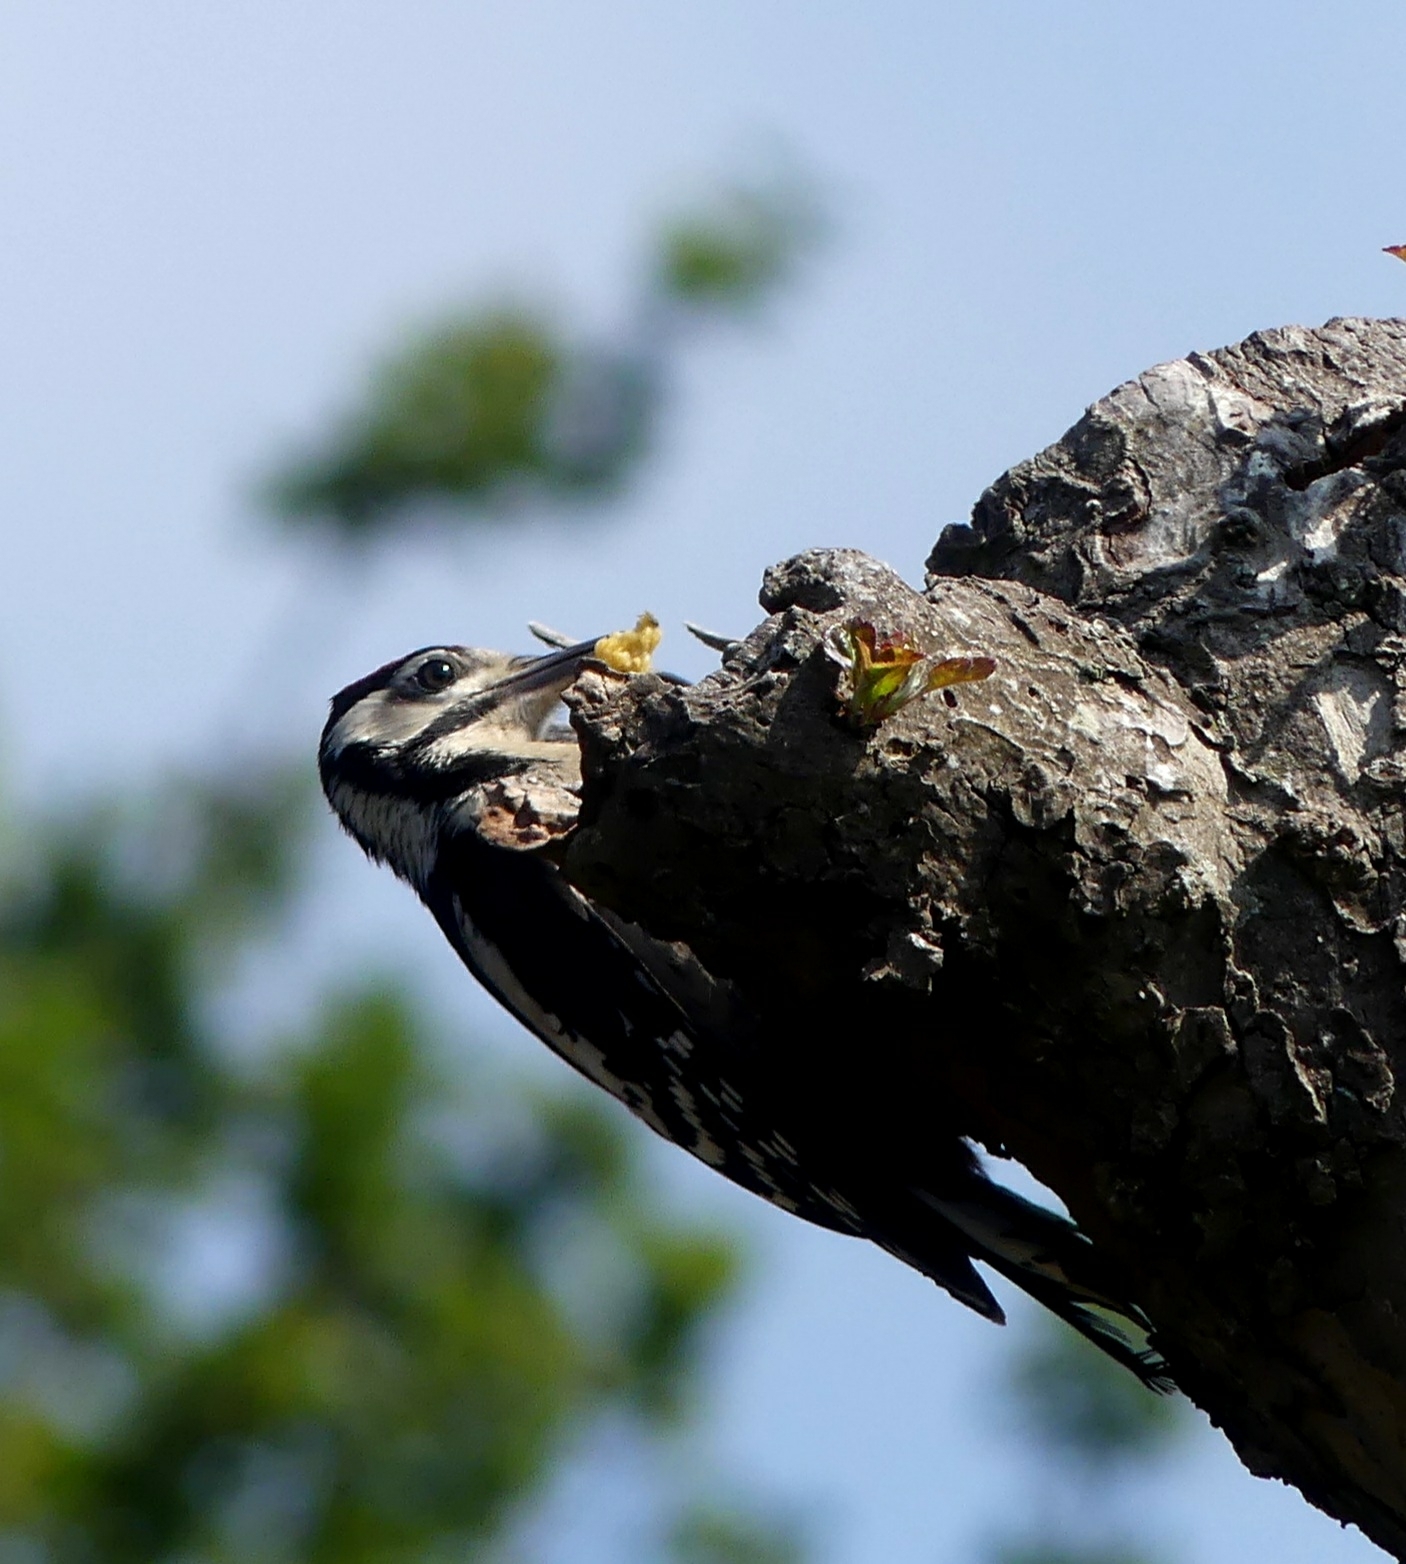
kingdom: Animalia
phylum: Chordata
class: Aves
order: Piciformes
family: Picidae
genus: Dendrocopos
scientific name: Dendrocopos major
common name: Great spotted woodpecker
